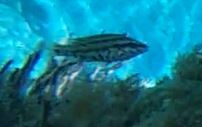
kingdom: Animalia
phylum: Chordata
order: Perciformes
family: Labridae
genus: Symphodus
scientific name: Symphodus roissali
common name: Five-spotted wrasse
